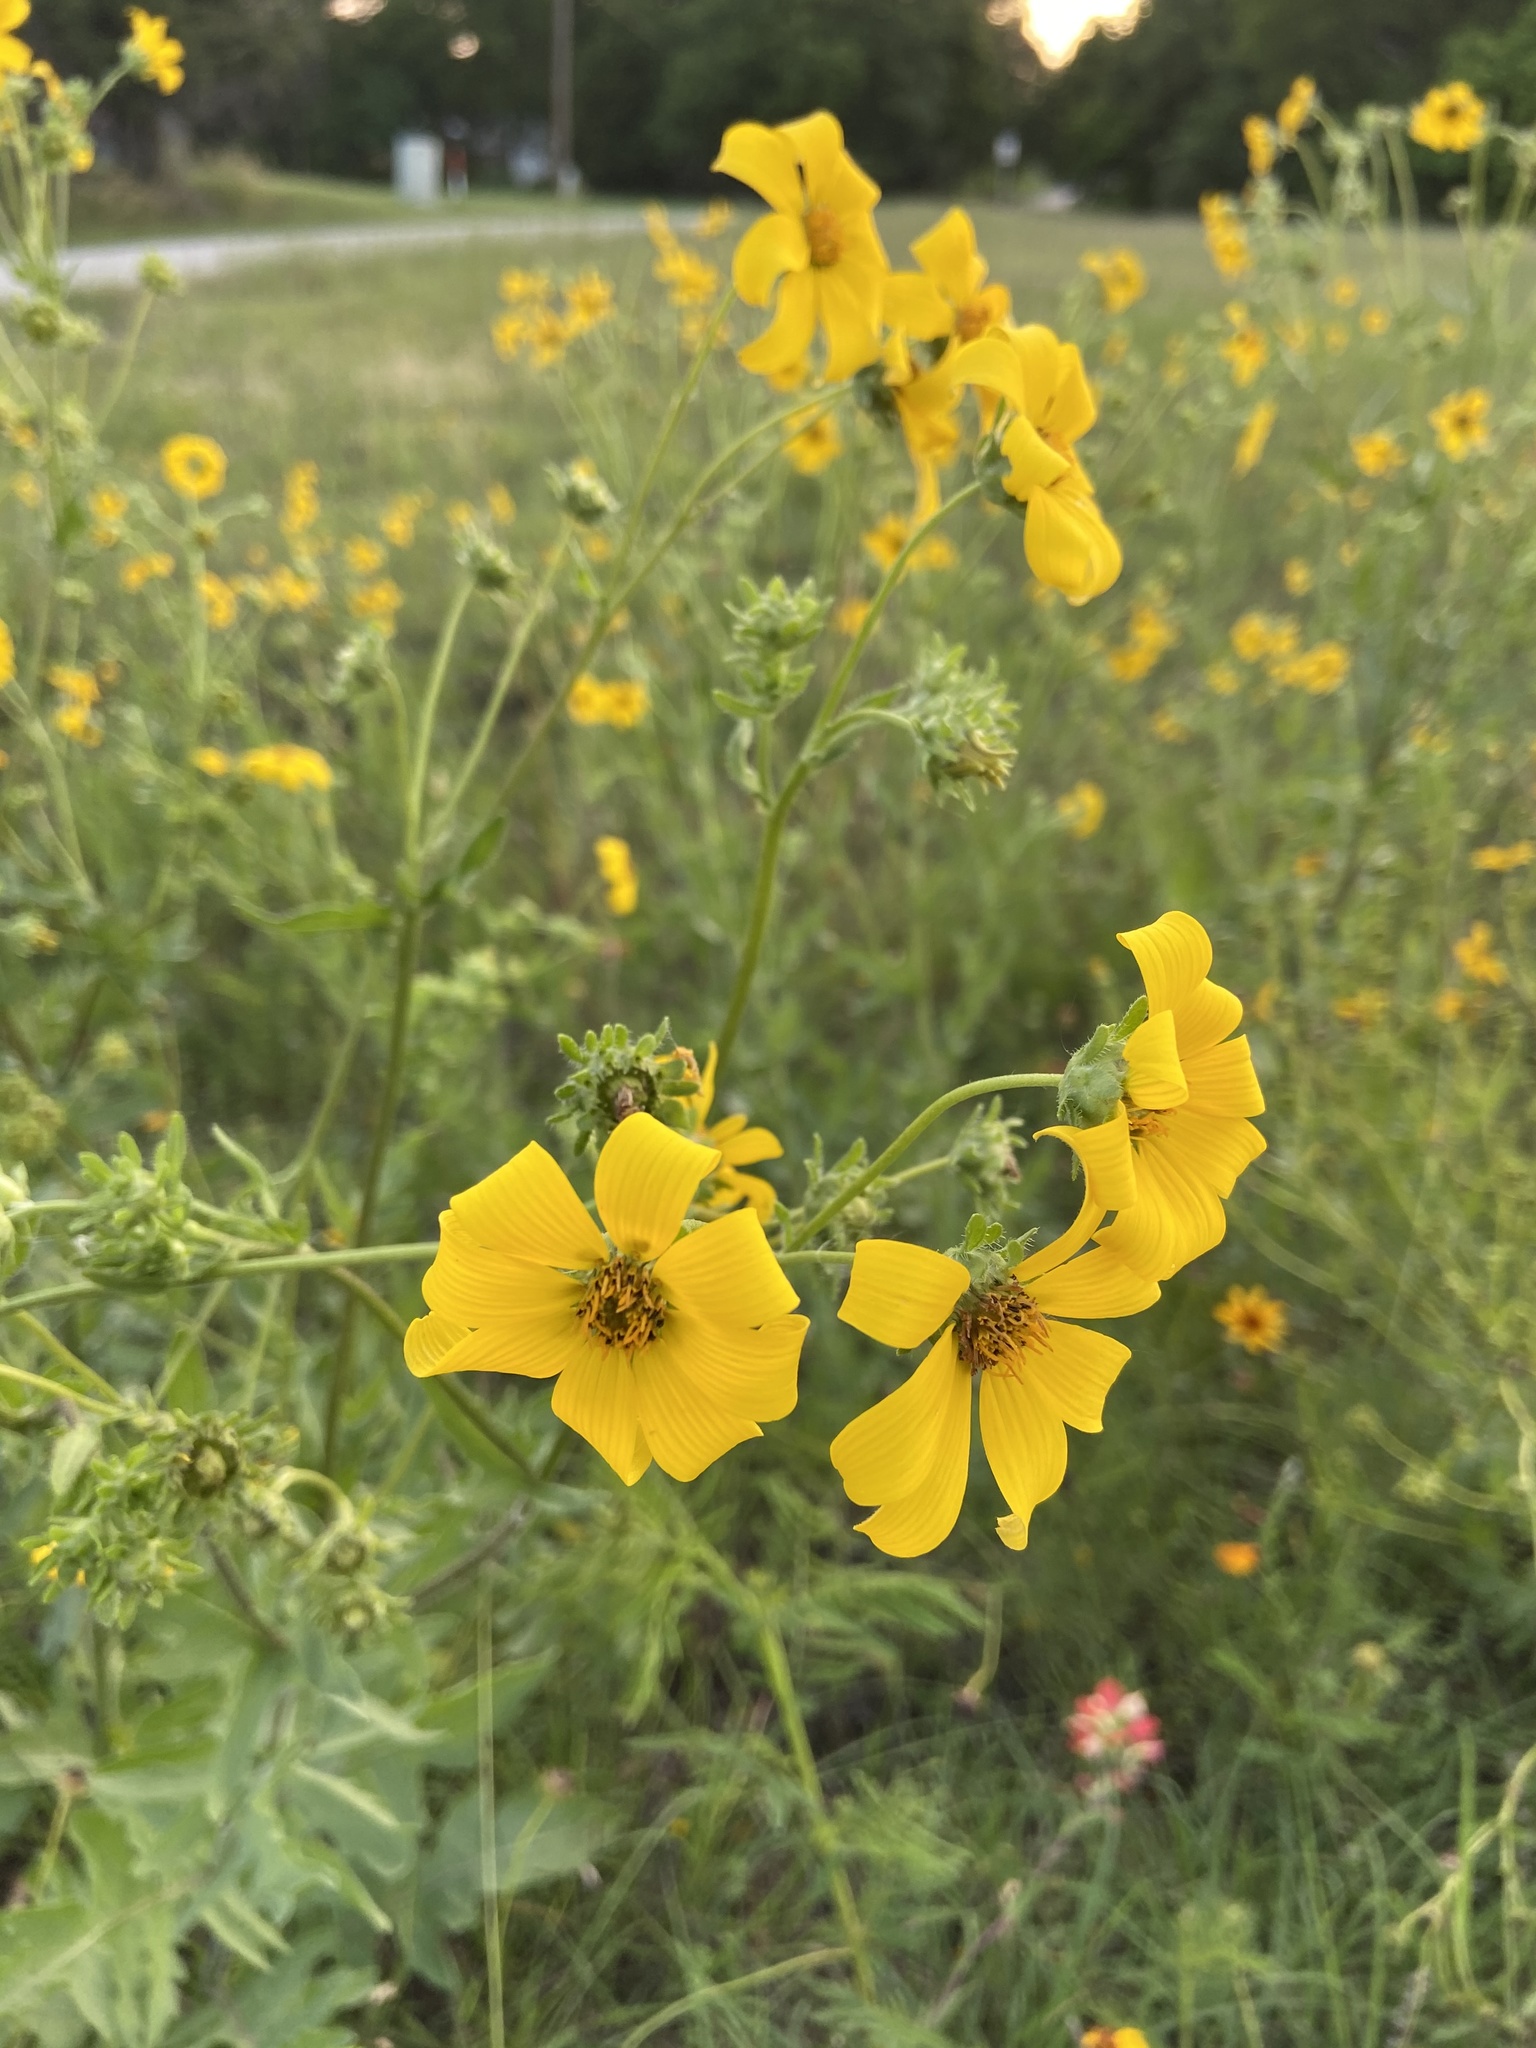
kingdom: Plantae
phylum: Tracheophyta
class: Magnoliopsida
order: Asterales
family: Asteraceae
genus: Engelmannia
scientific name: Engelmannia peristenia
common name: Engelmann's daisy
